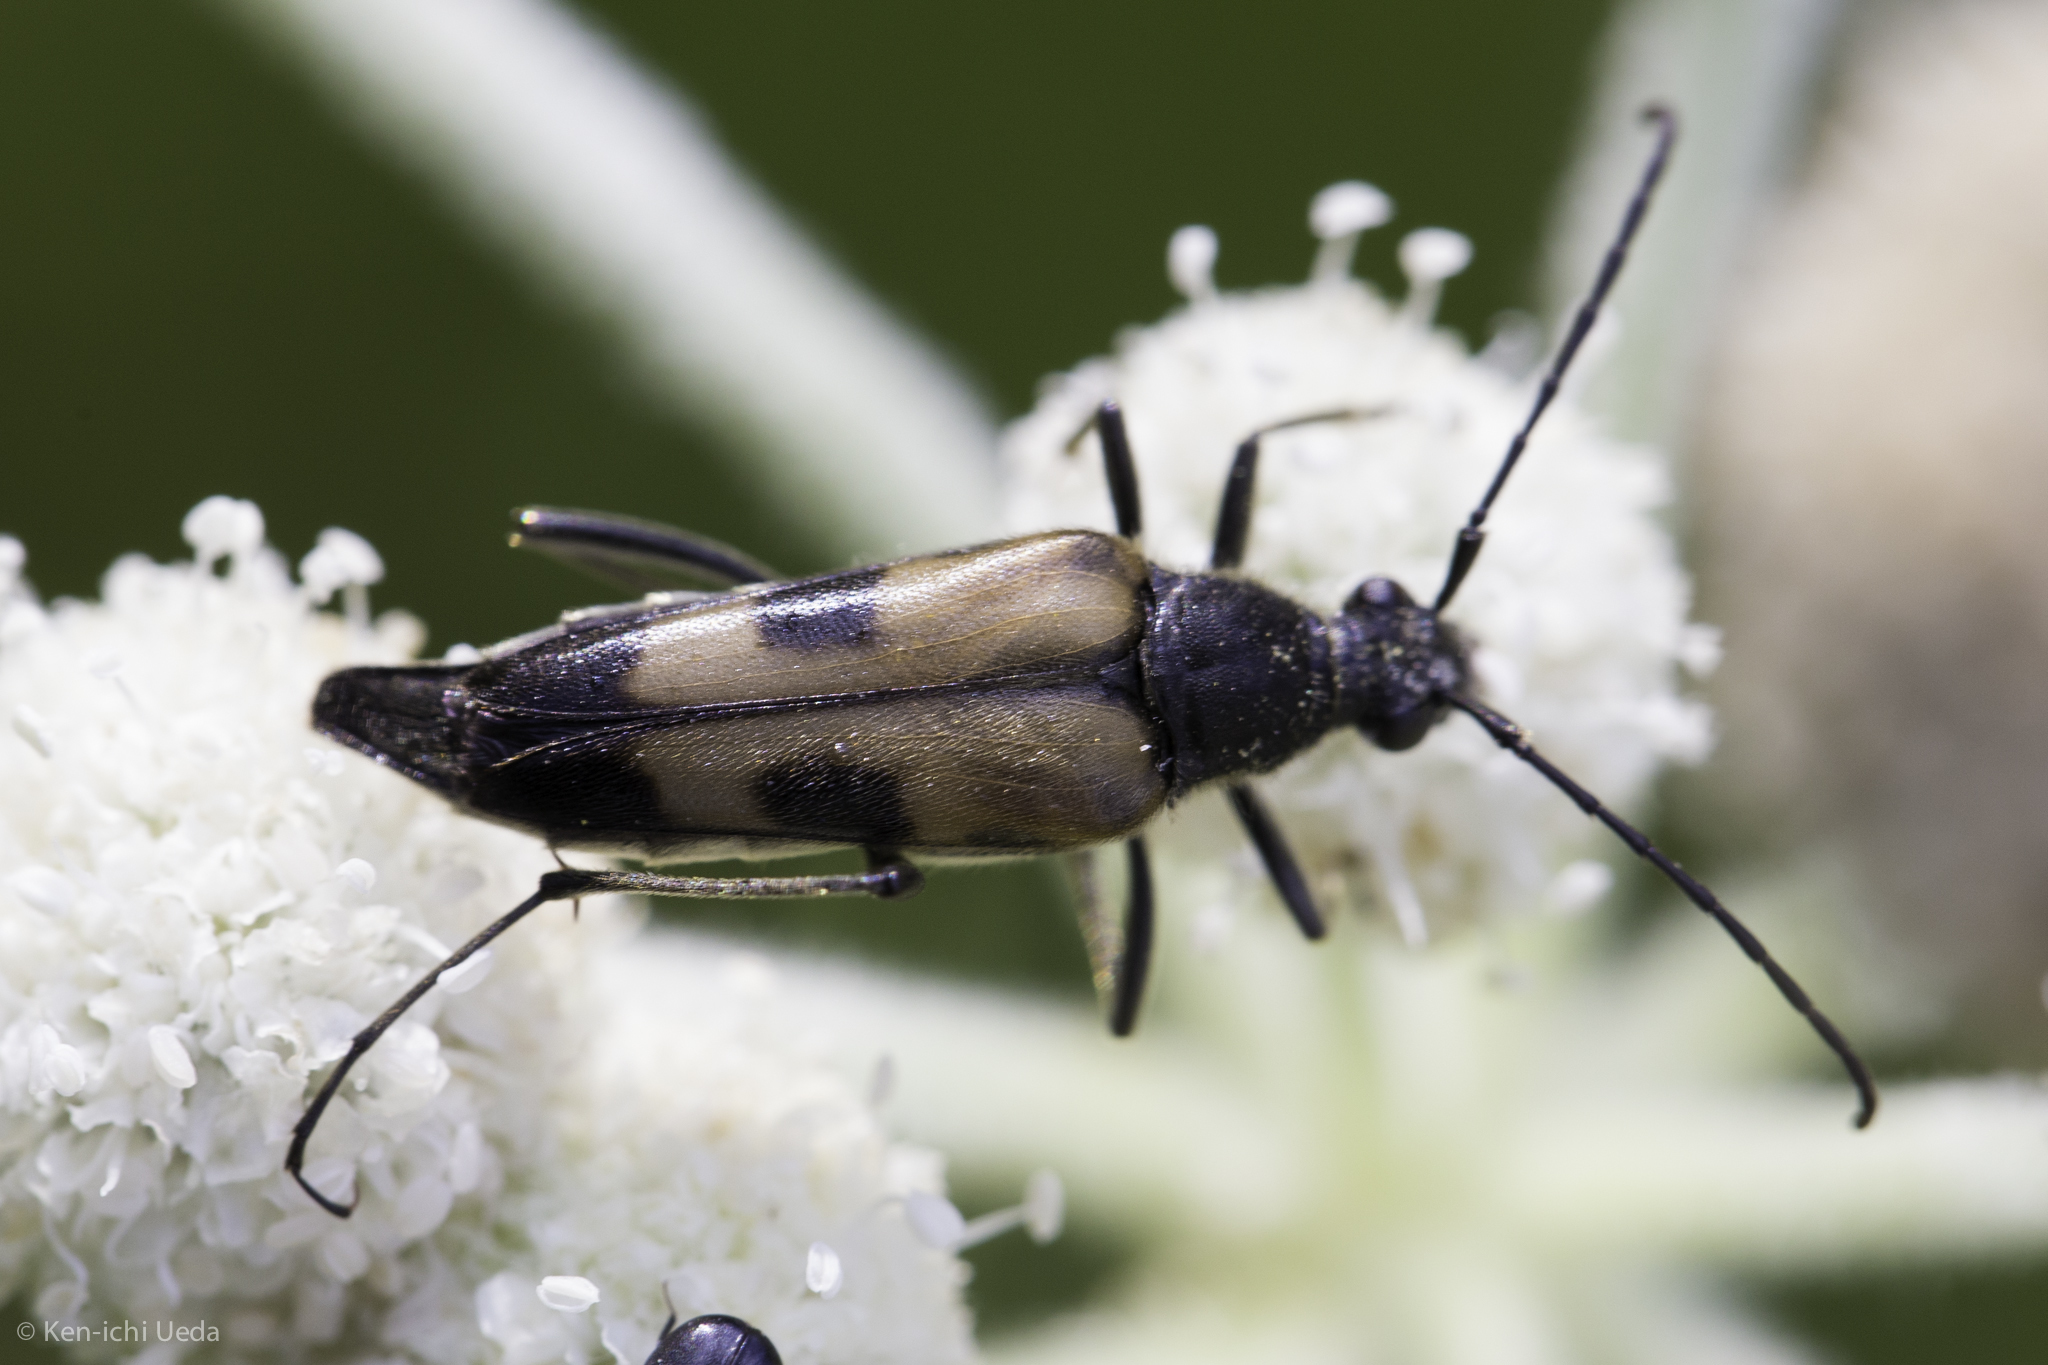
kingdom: Animalia
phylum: Arthropoda
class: Insecta
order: Coleoptera
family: Cerambycidae
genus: Etorofus
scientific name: Etorofus
